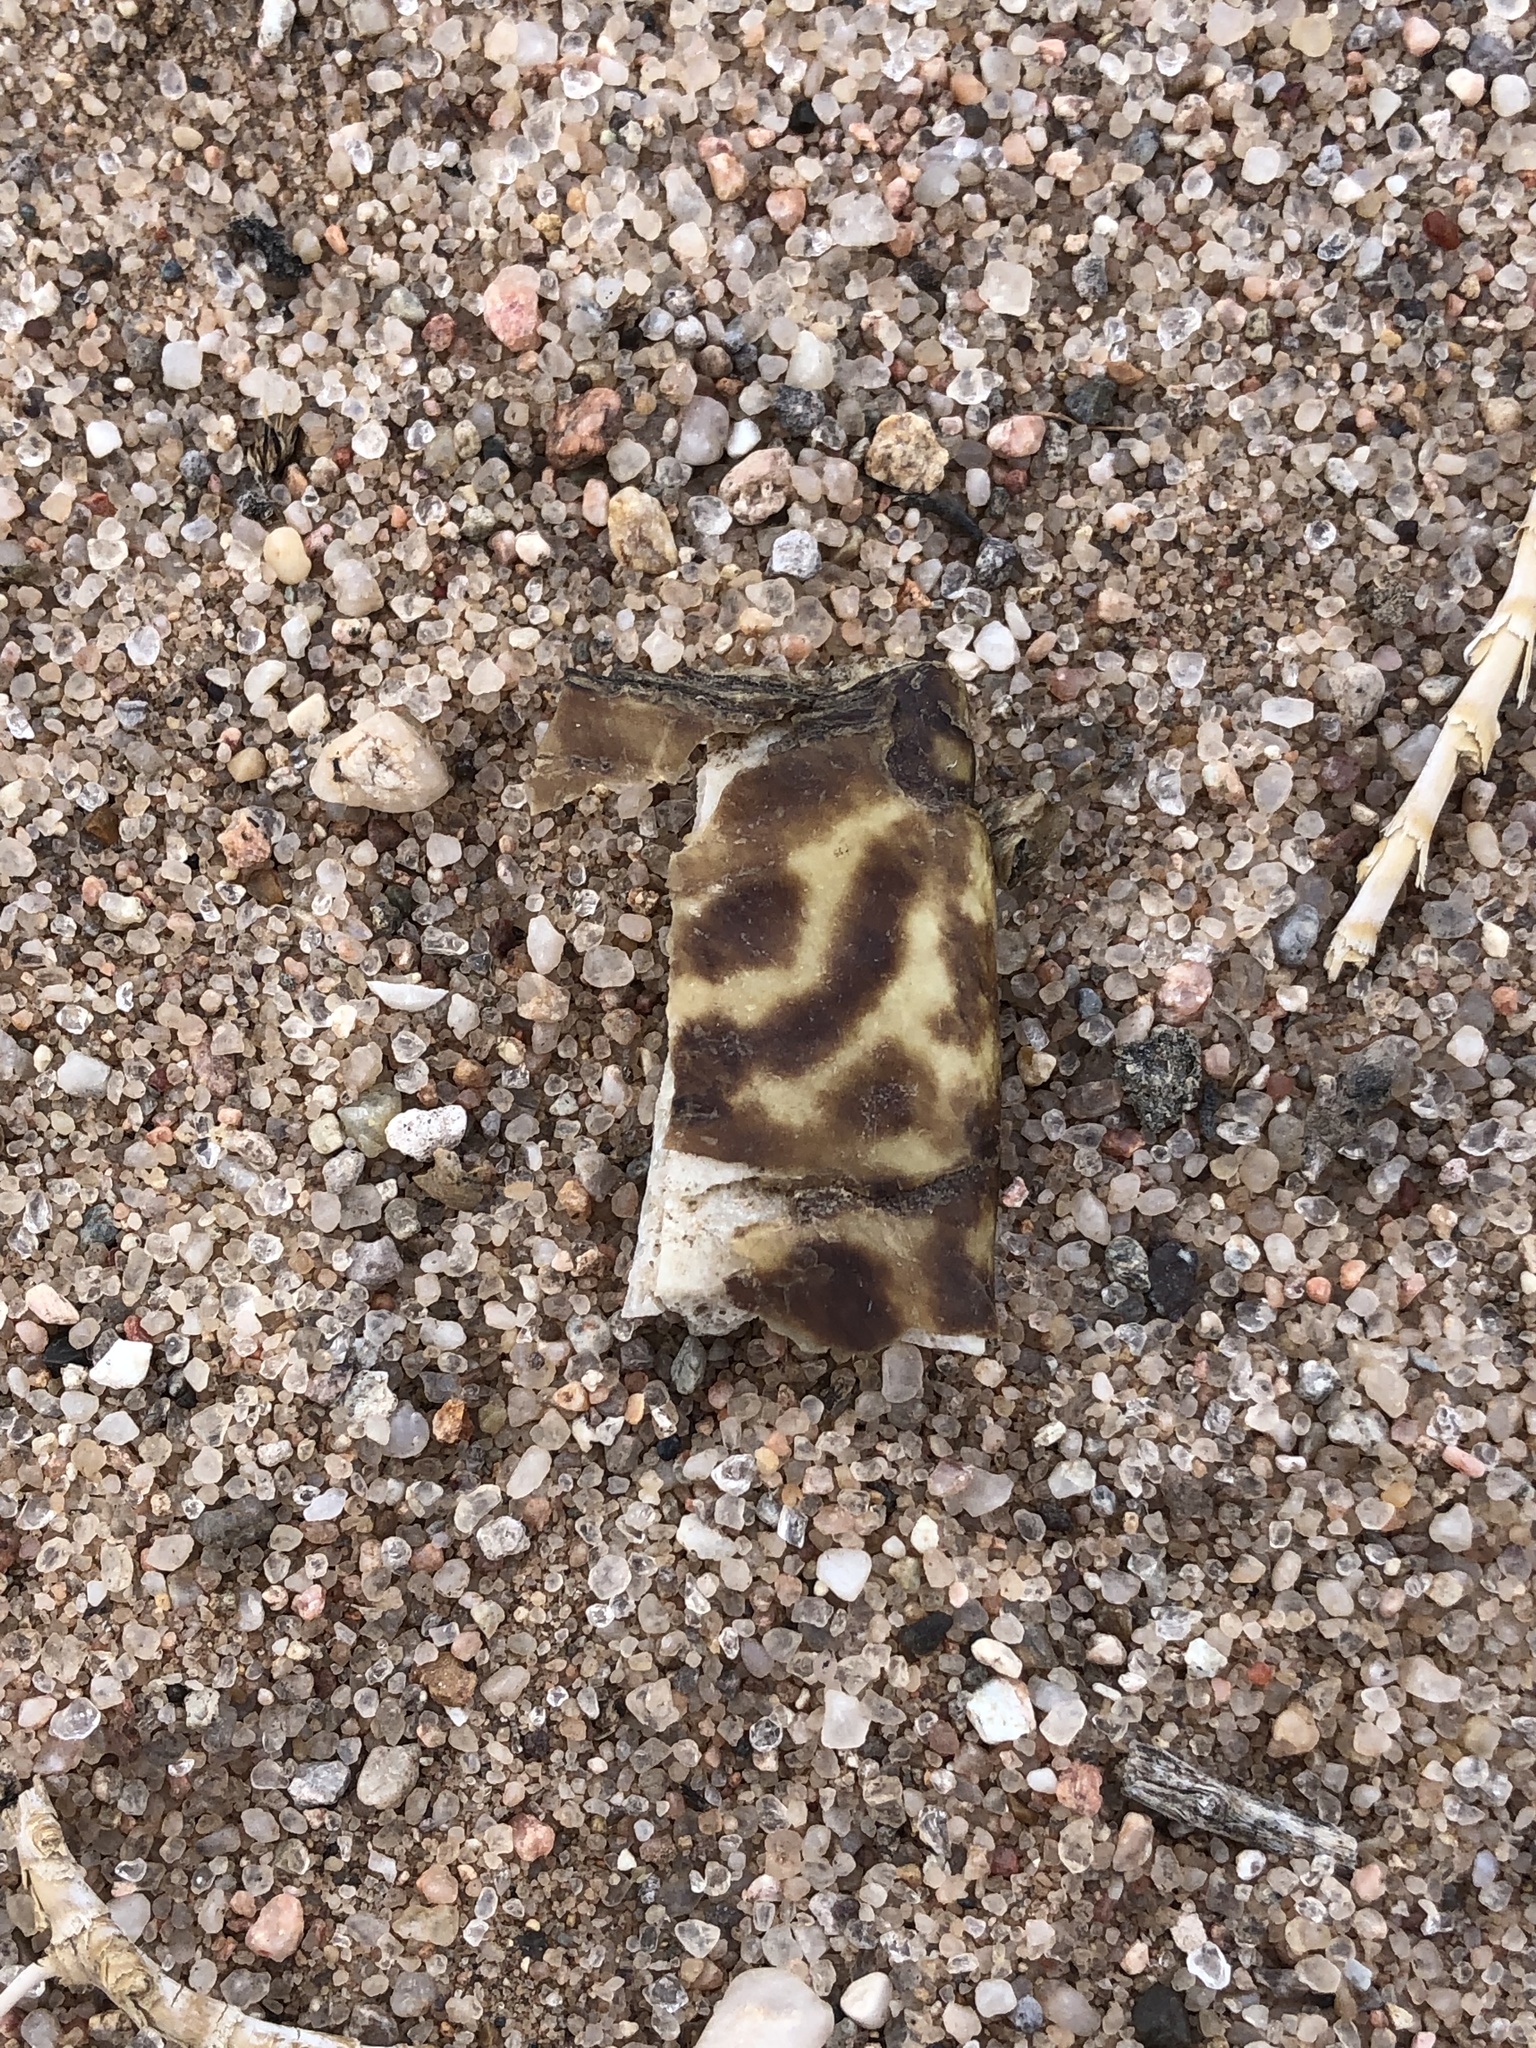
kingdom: Animalia
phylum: Chordata
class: Testudines
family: Emydidae
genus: Terrapene
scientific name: Terrapene ornata
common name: Western box turtle
